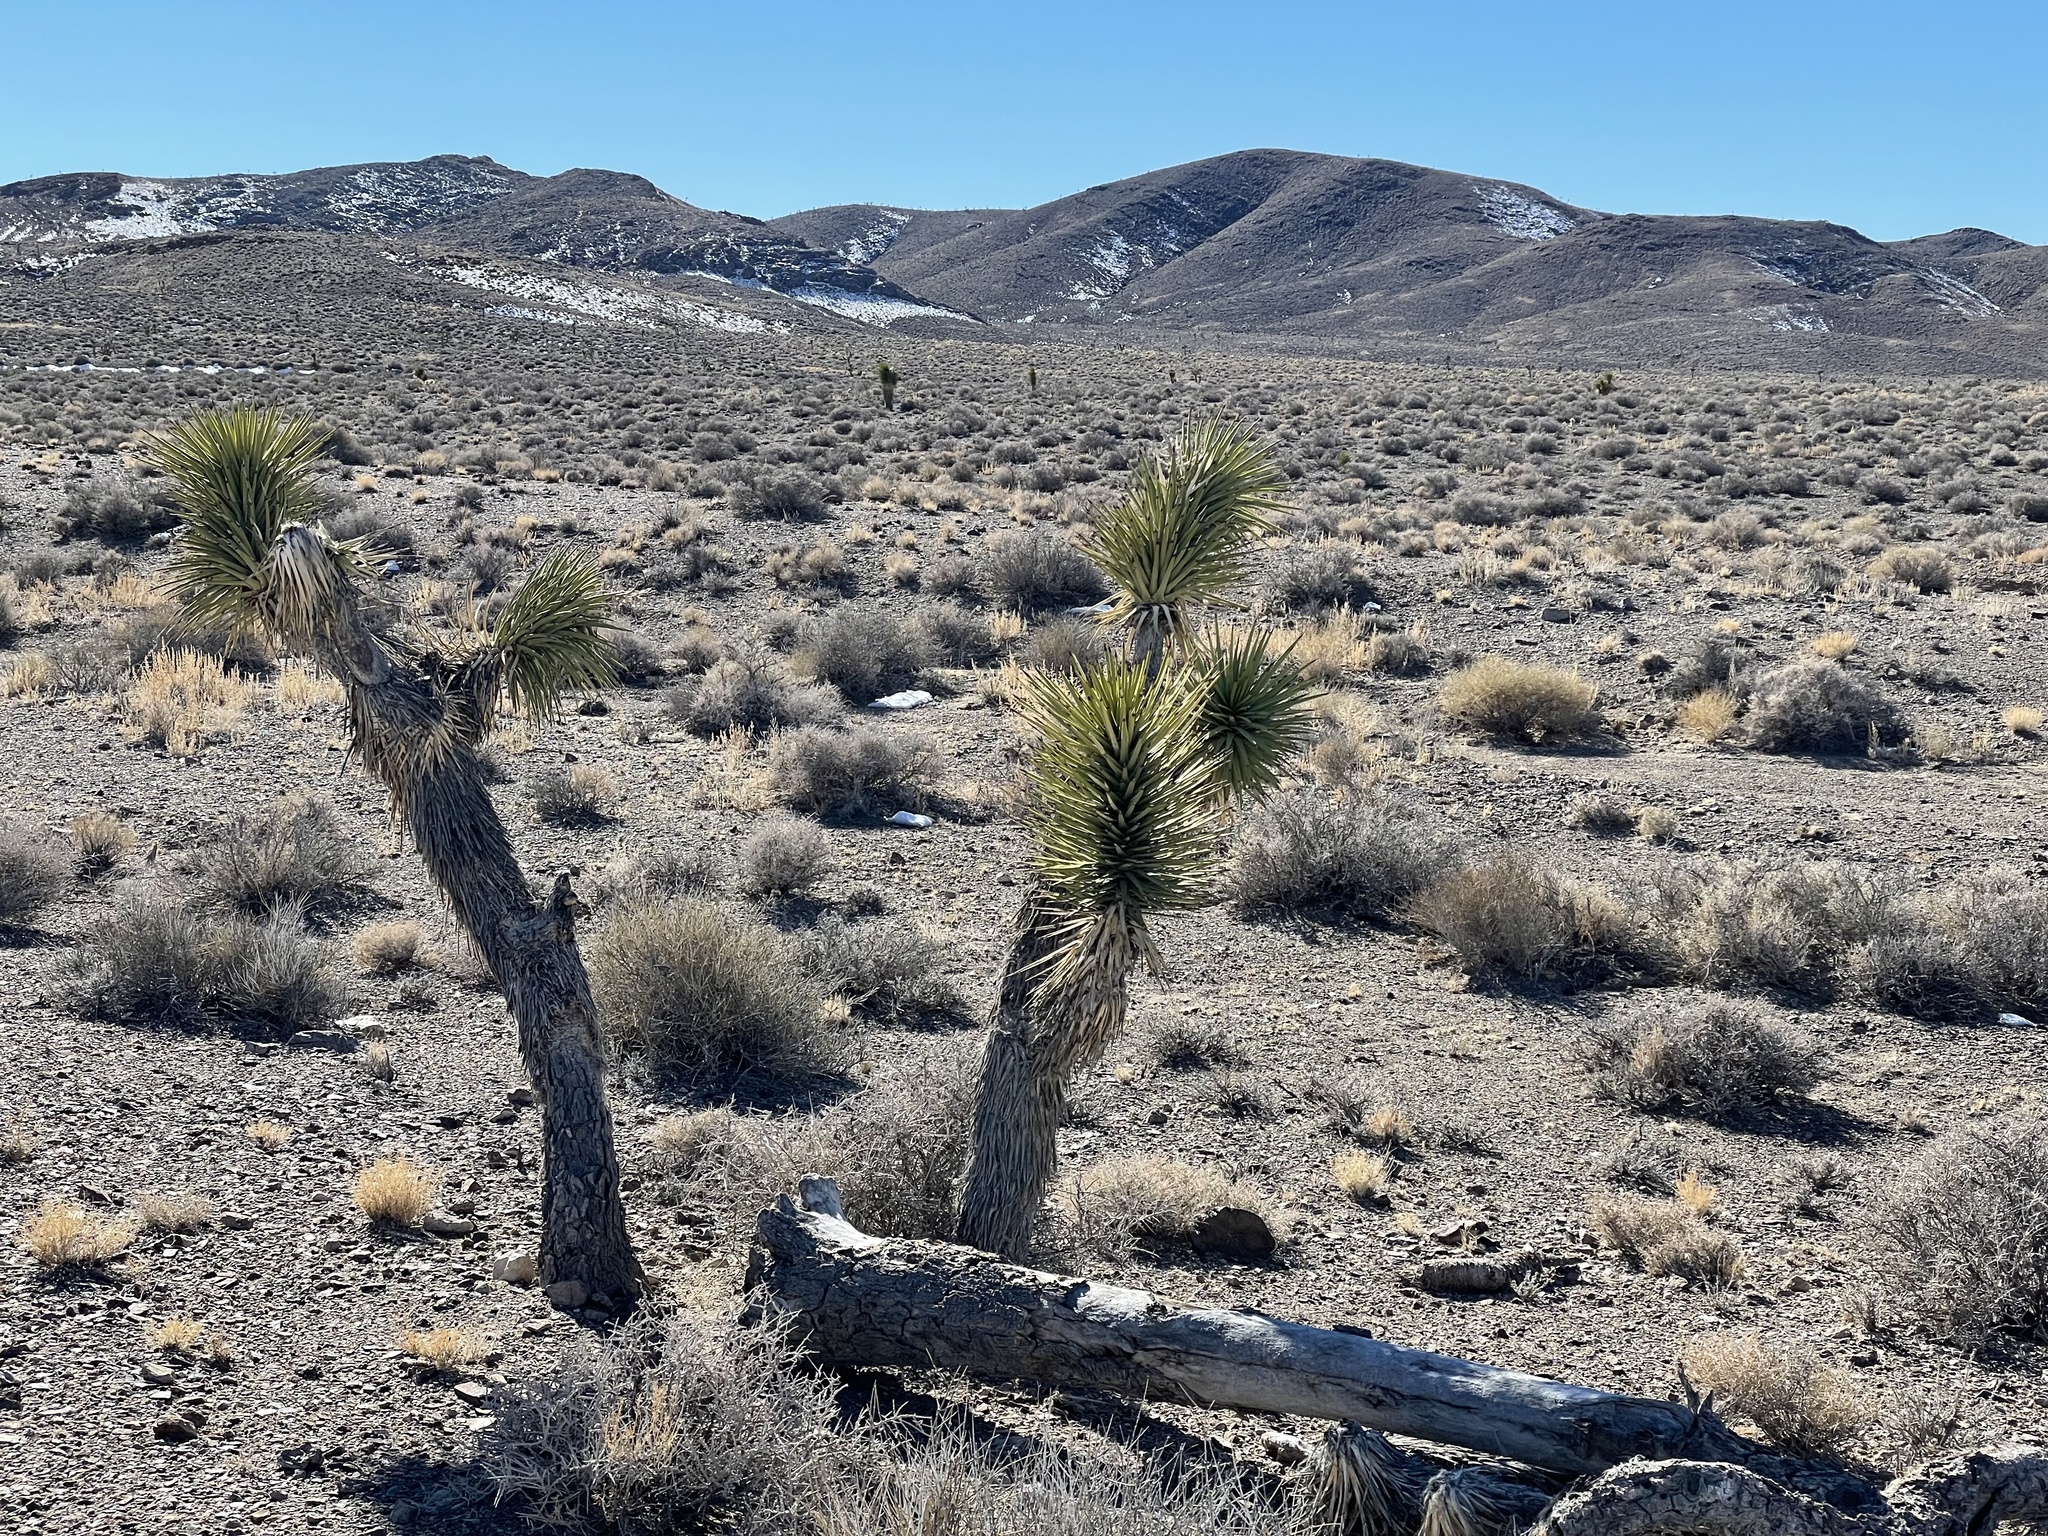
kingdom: Plantae
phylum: Tracheophyta
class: Liliopsida
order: Asparagales
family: Asparagaceae
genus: Yucca
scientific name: Yucca brevifolia
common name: Joshua tree
